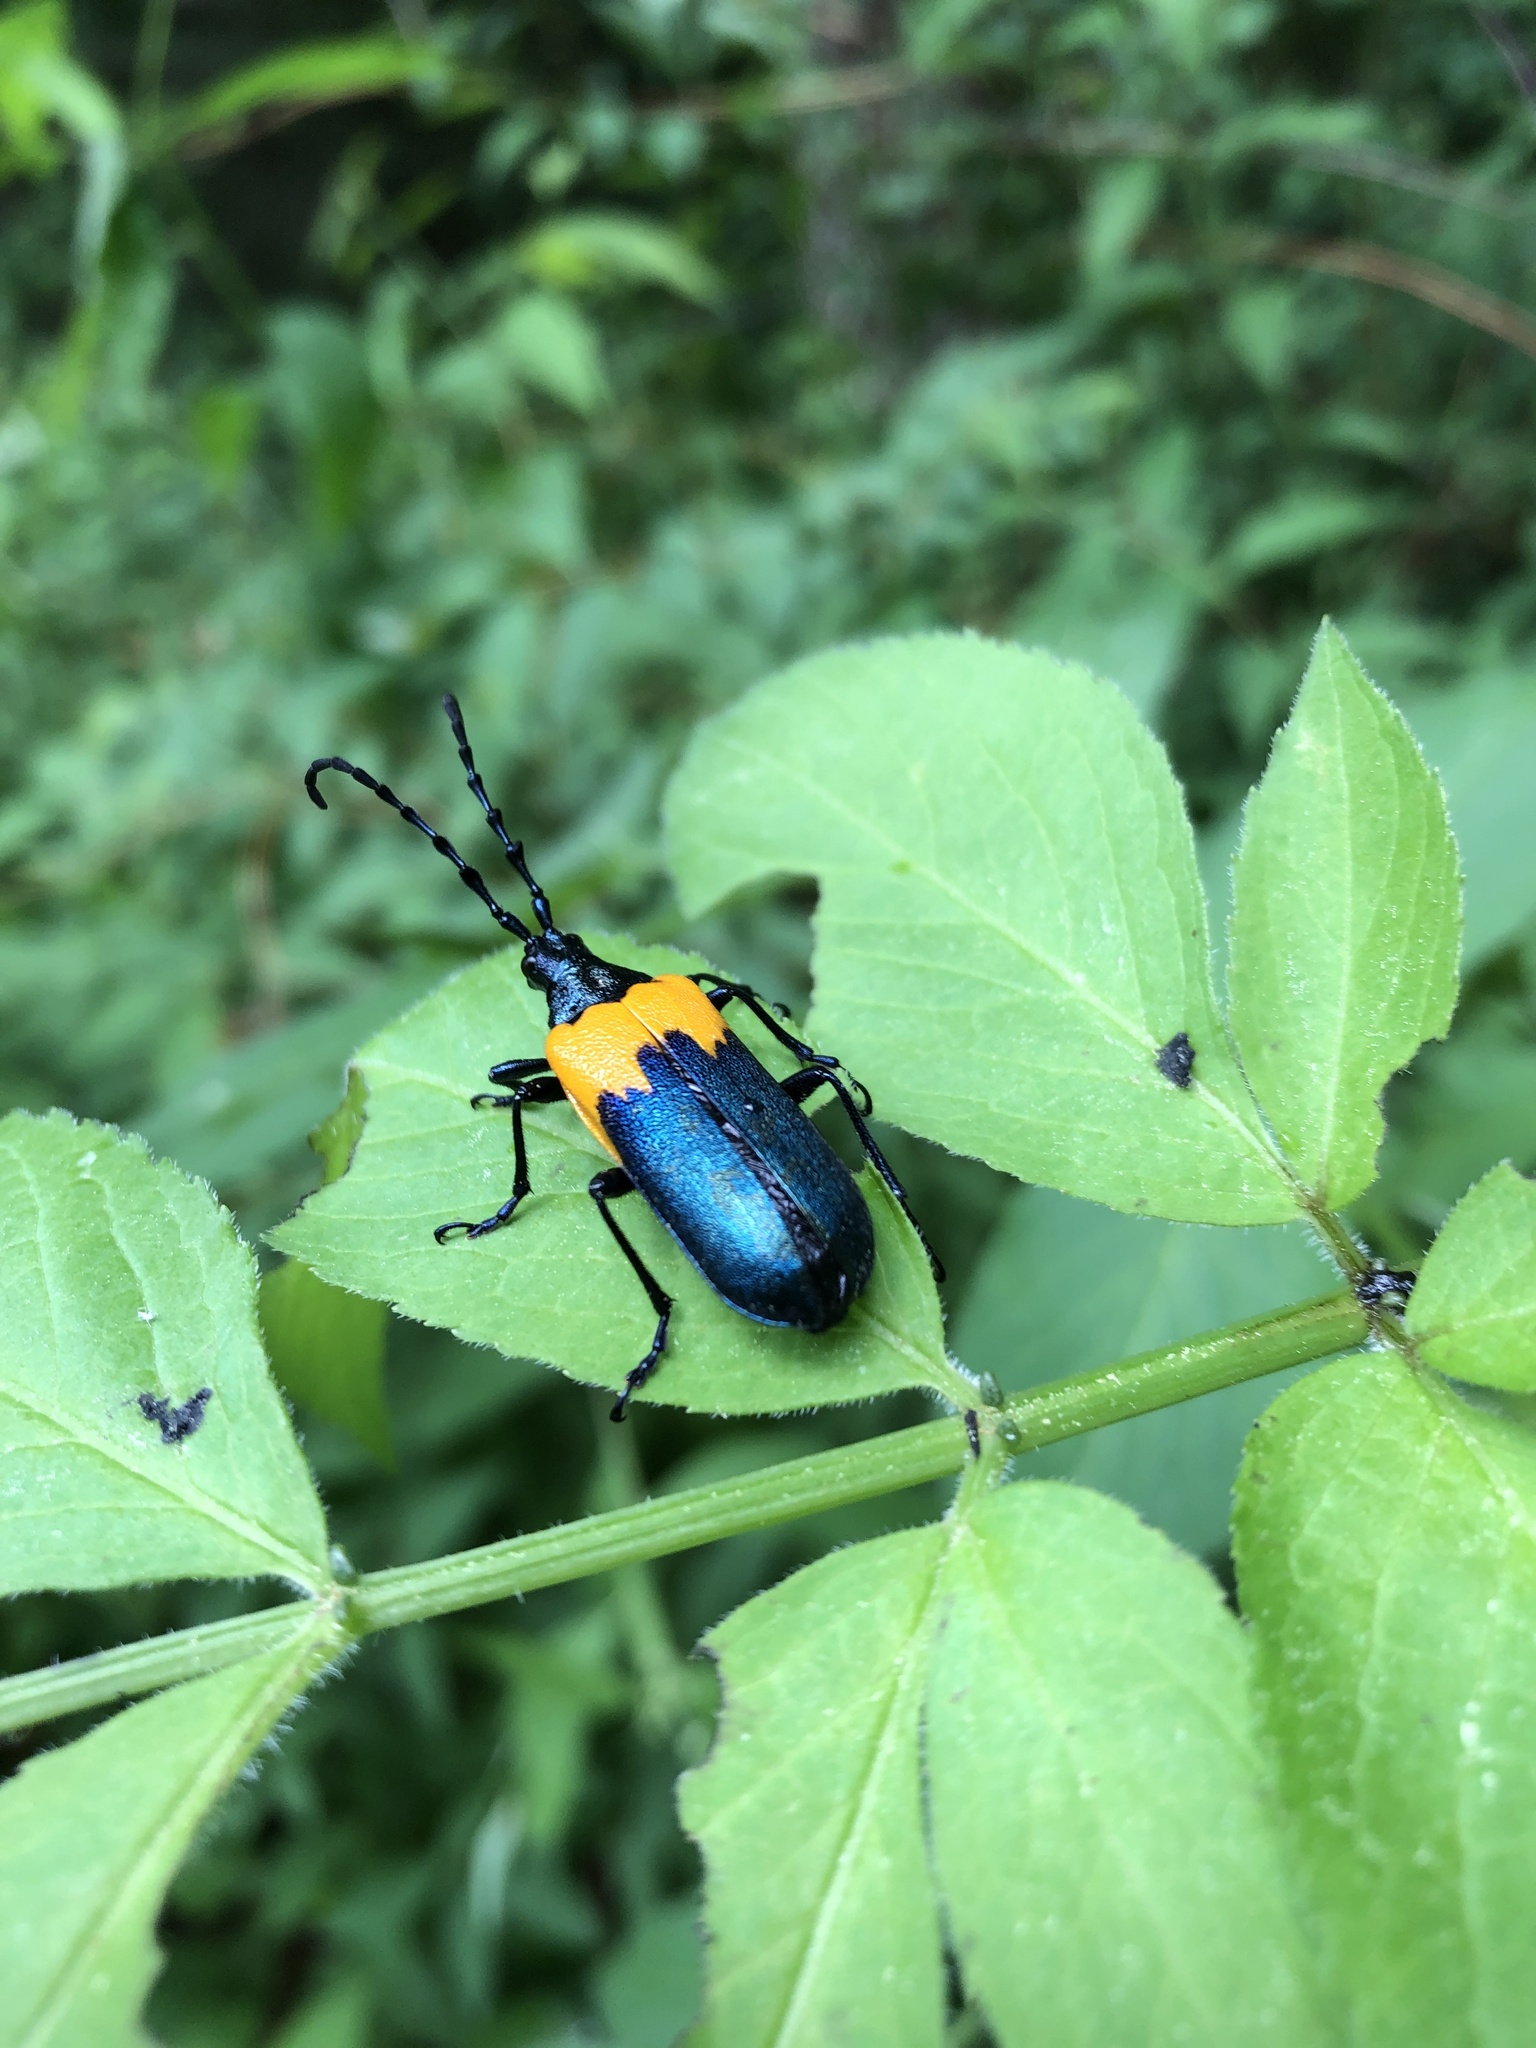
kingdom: Animalia
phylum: Arthropoda
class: Insecta
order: Coleoptera
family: Cerambycidae
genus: Desmocerus
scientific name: Desmocerus palliatus
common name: Eastern elderberry borer
